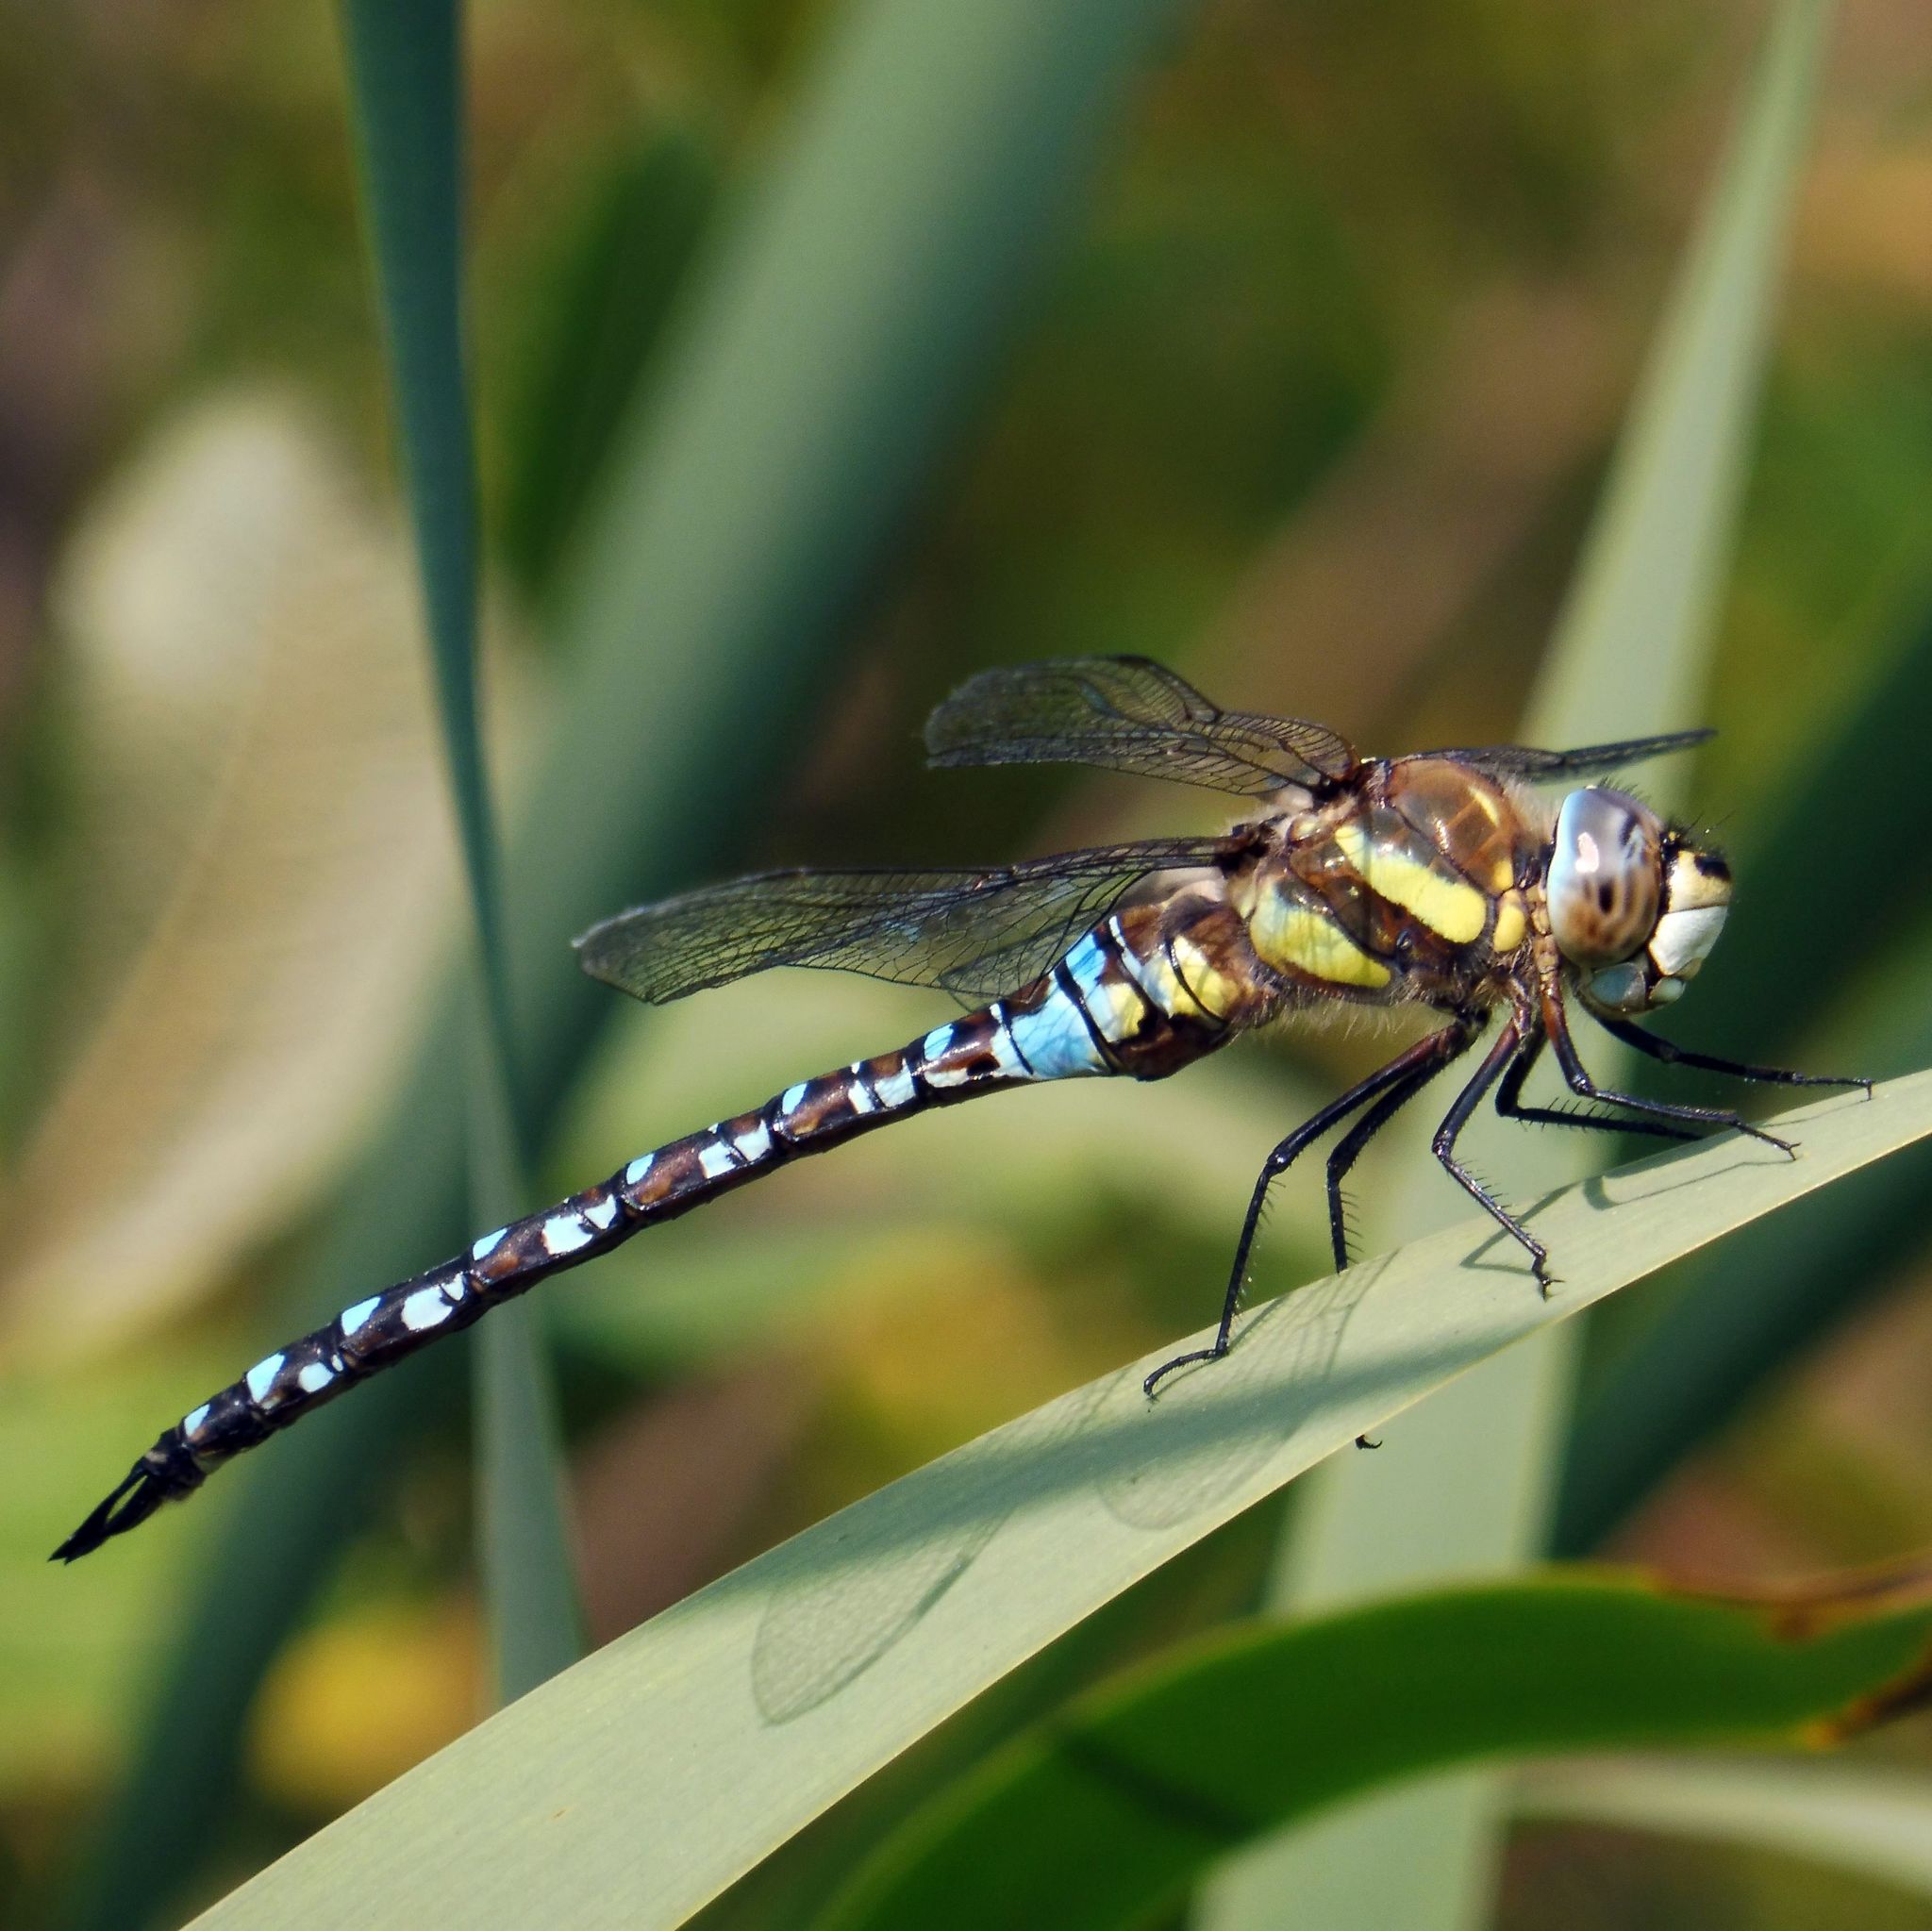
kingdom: Animalia
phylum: Arthropoda
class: Insecta
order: Odonata
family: Aeshnidae
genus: Aeshna
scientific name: Aeshna mixta
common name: Migrant hawker
